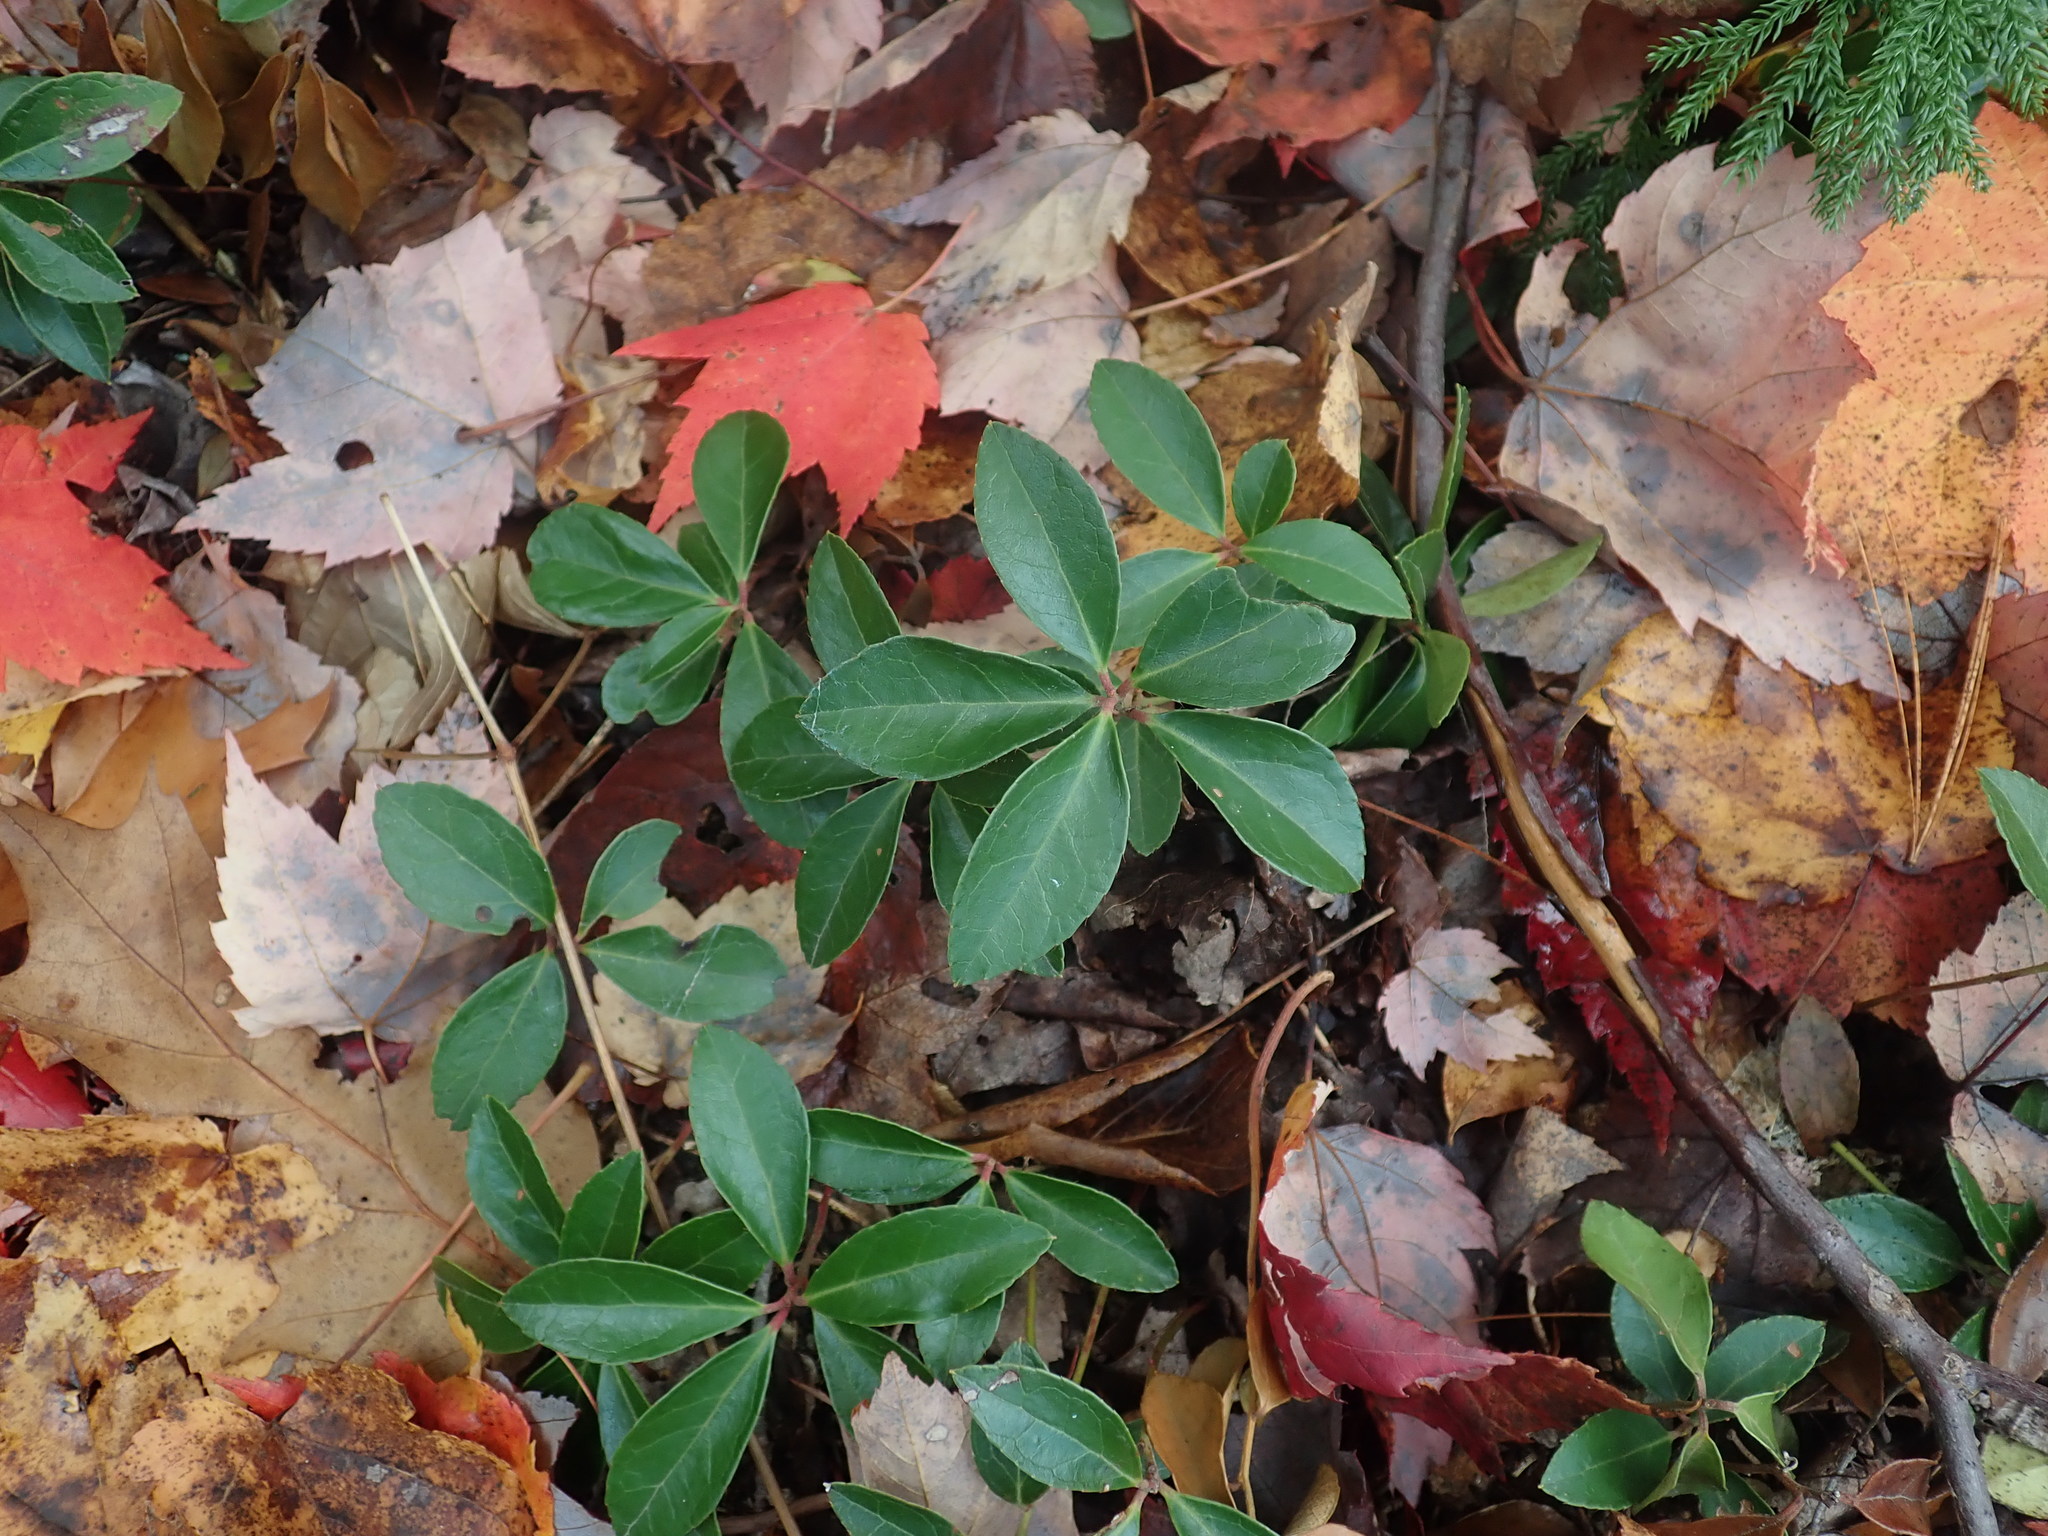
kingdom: Plantae
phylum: Tracheophyta
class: Magnoliopsida
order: Ericales
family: Ericaceae
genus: Gaultheria
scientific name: Gaultheria procumbens
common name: Checkerberry
